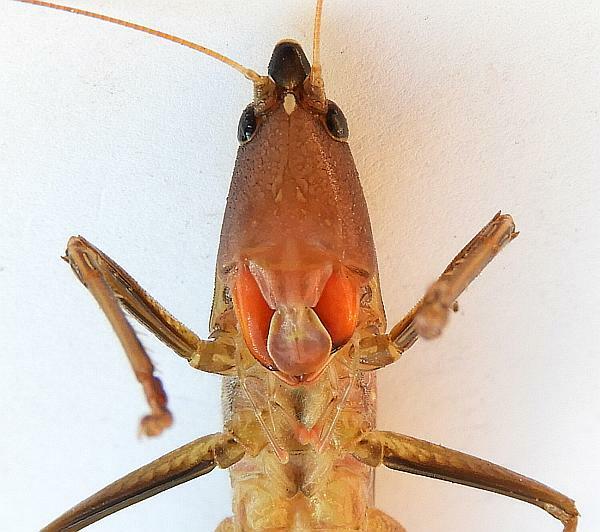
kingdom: Animalia
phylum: Arthropoda
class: Insecta
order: Orthoptera
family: Tettigoniidae
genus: Neoconocephalus
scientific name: Neoconocephalus melanorhinus
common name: Black-nosed conehead
